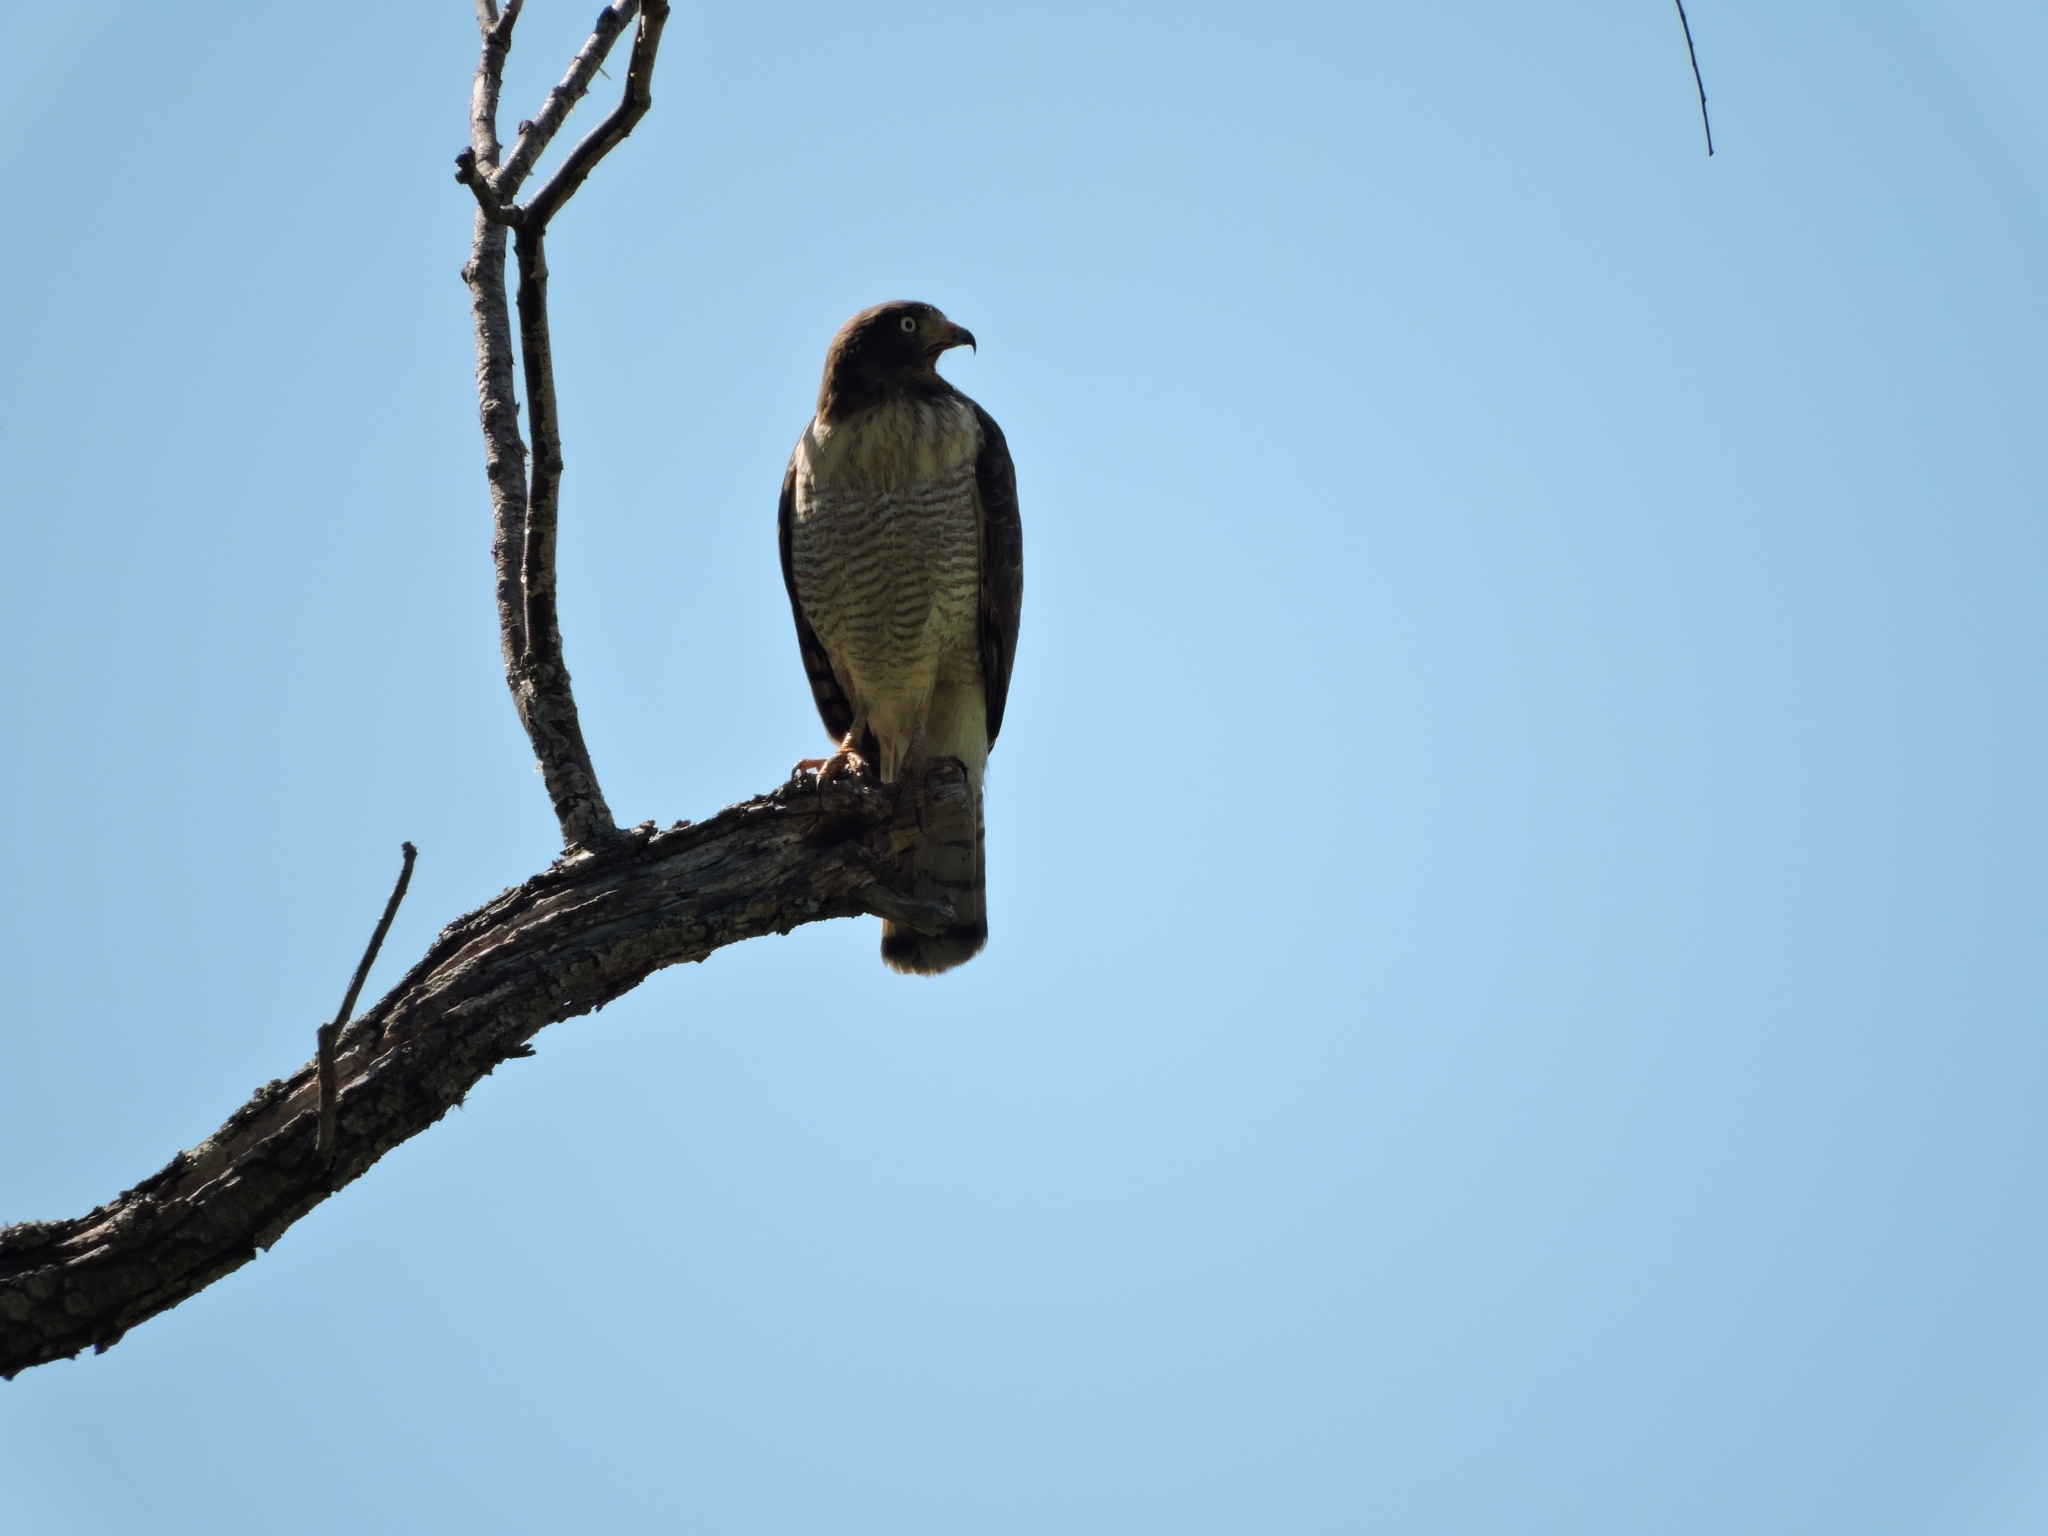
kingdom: Animalia
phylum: Chordata
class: Aves
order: Accipitriformes
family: Accipitridae
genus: Rupornis
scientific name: Rupornis magnirostris
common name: Roadside hawk
